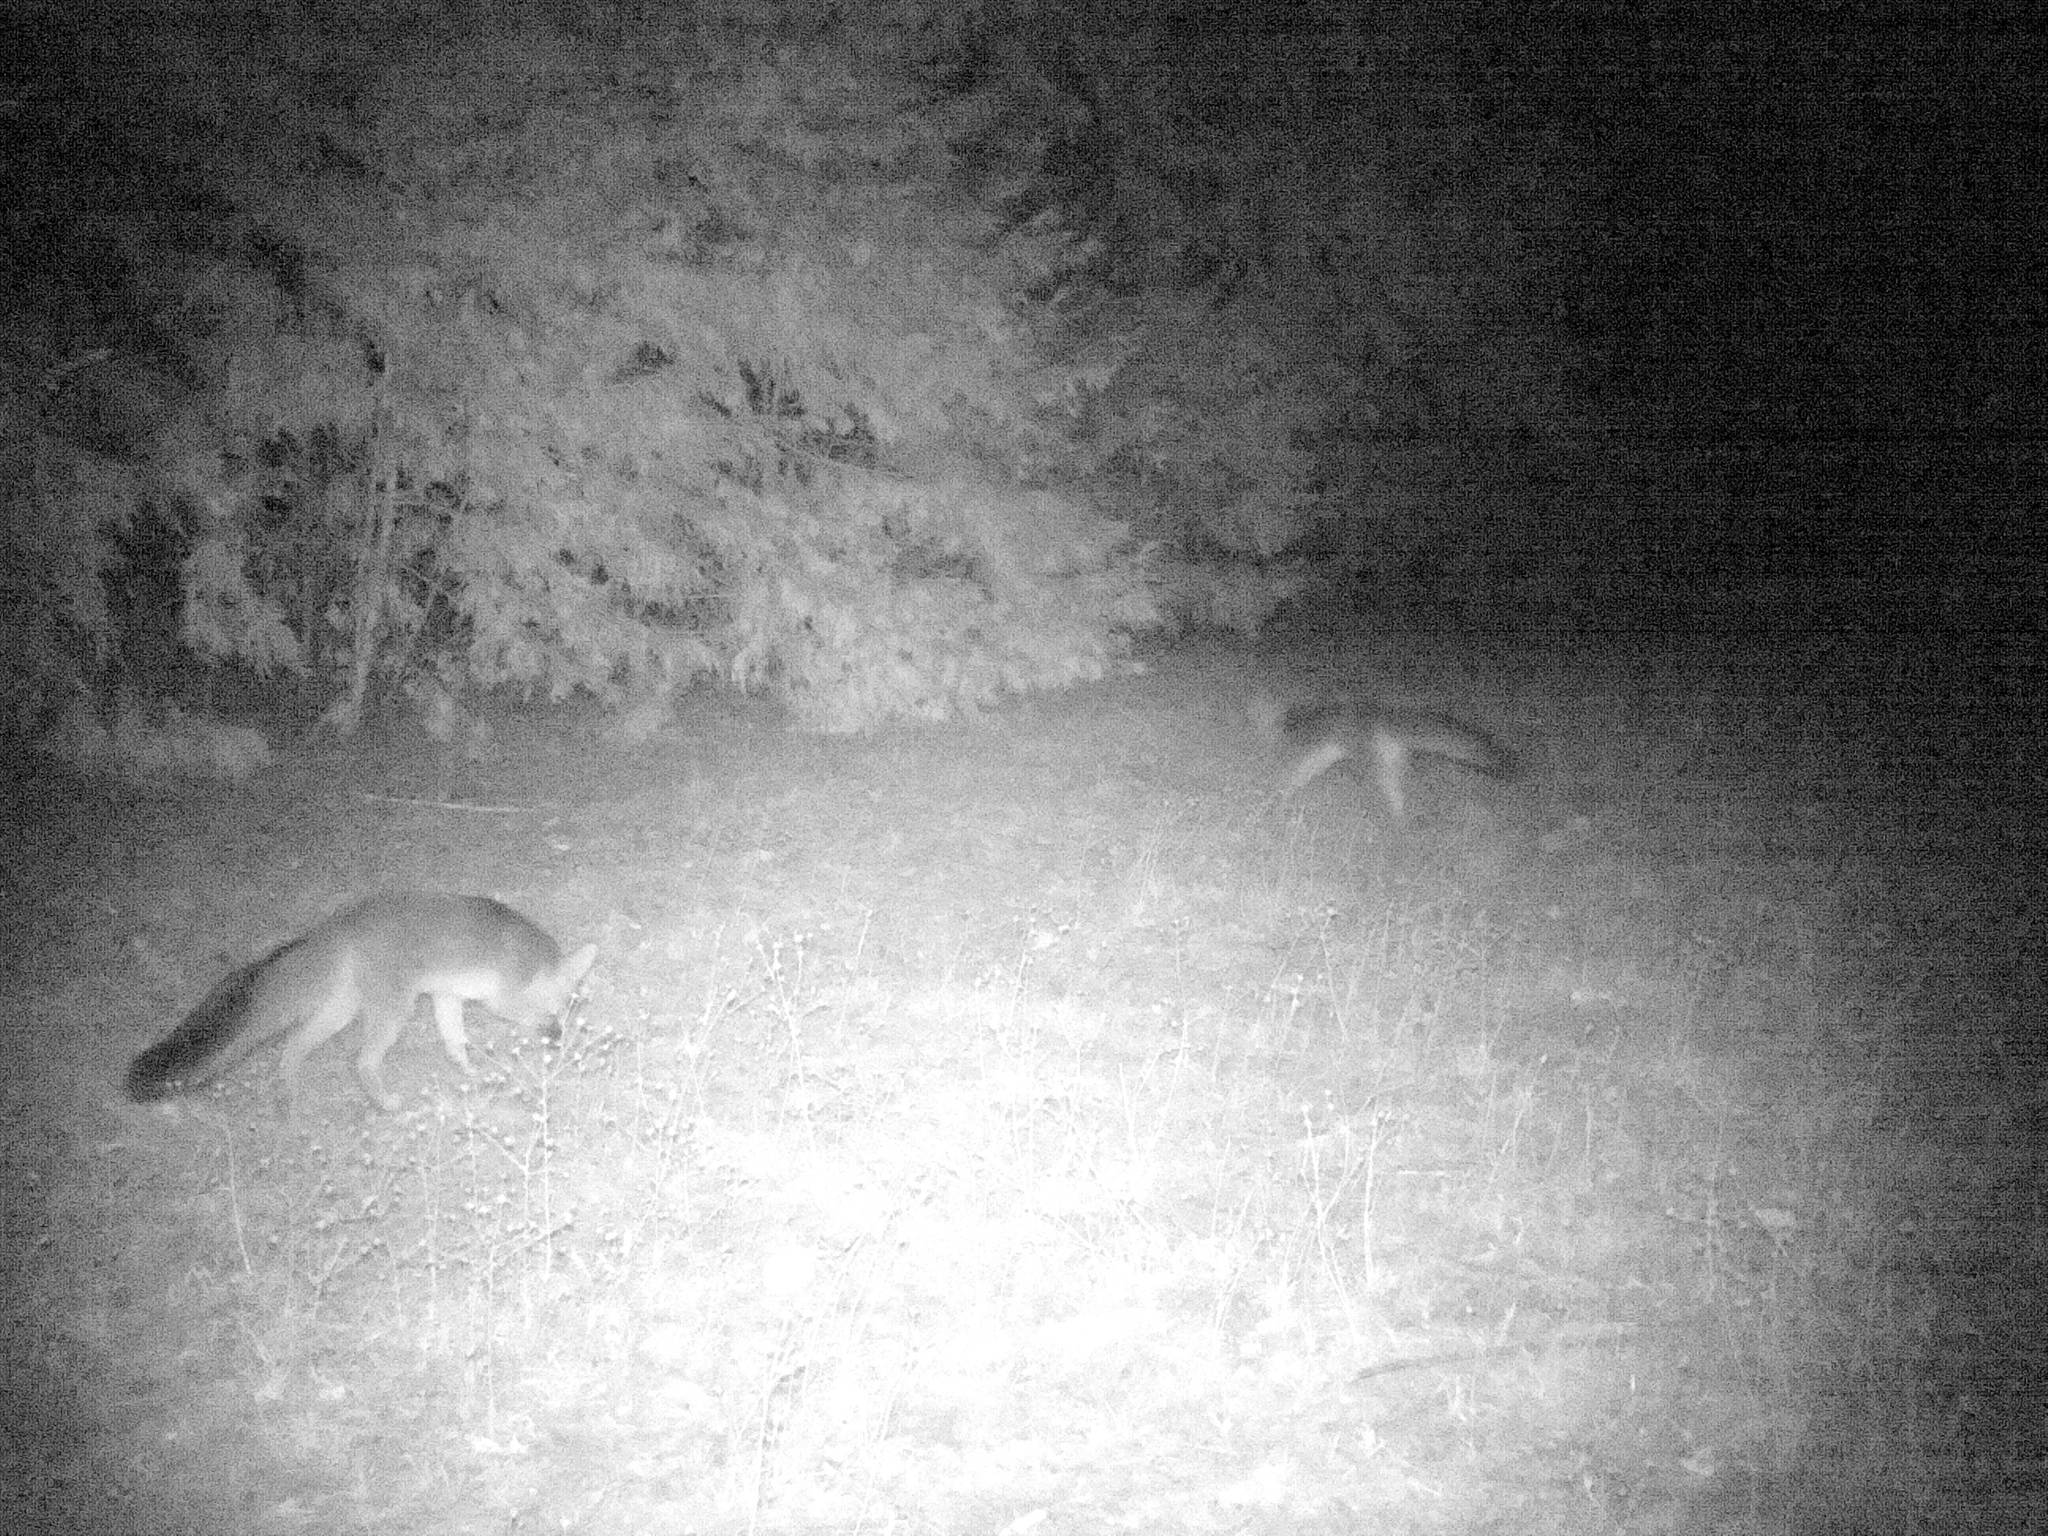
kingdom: Animalia
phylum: Chordata
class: Mammalia
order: Carnivora
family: Canidae
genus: Urocyon
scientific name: Urocyon cinereoargenteus
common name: Gray fox
